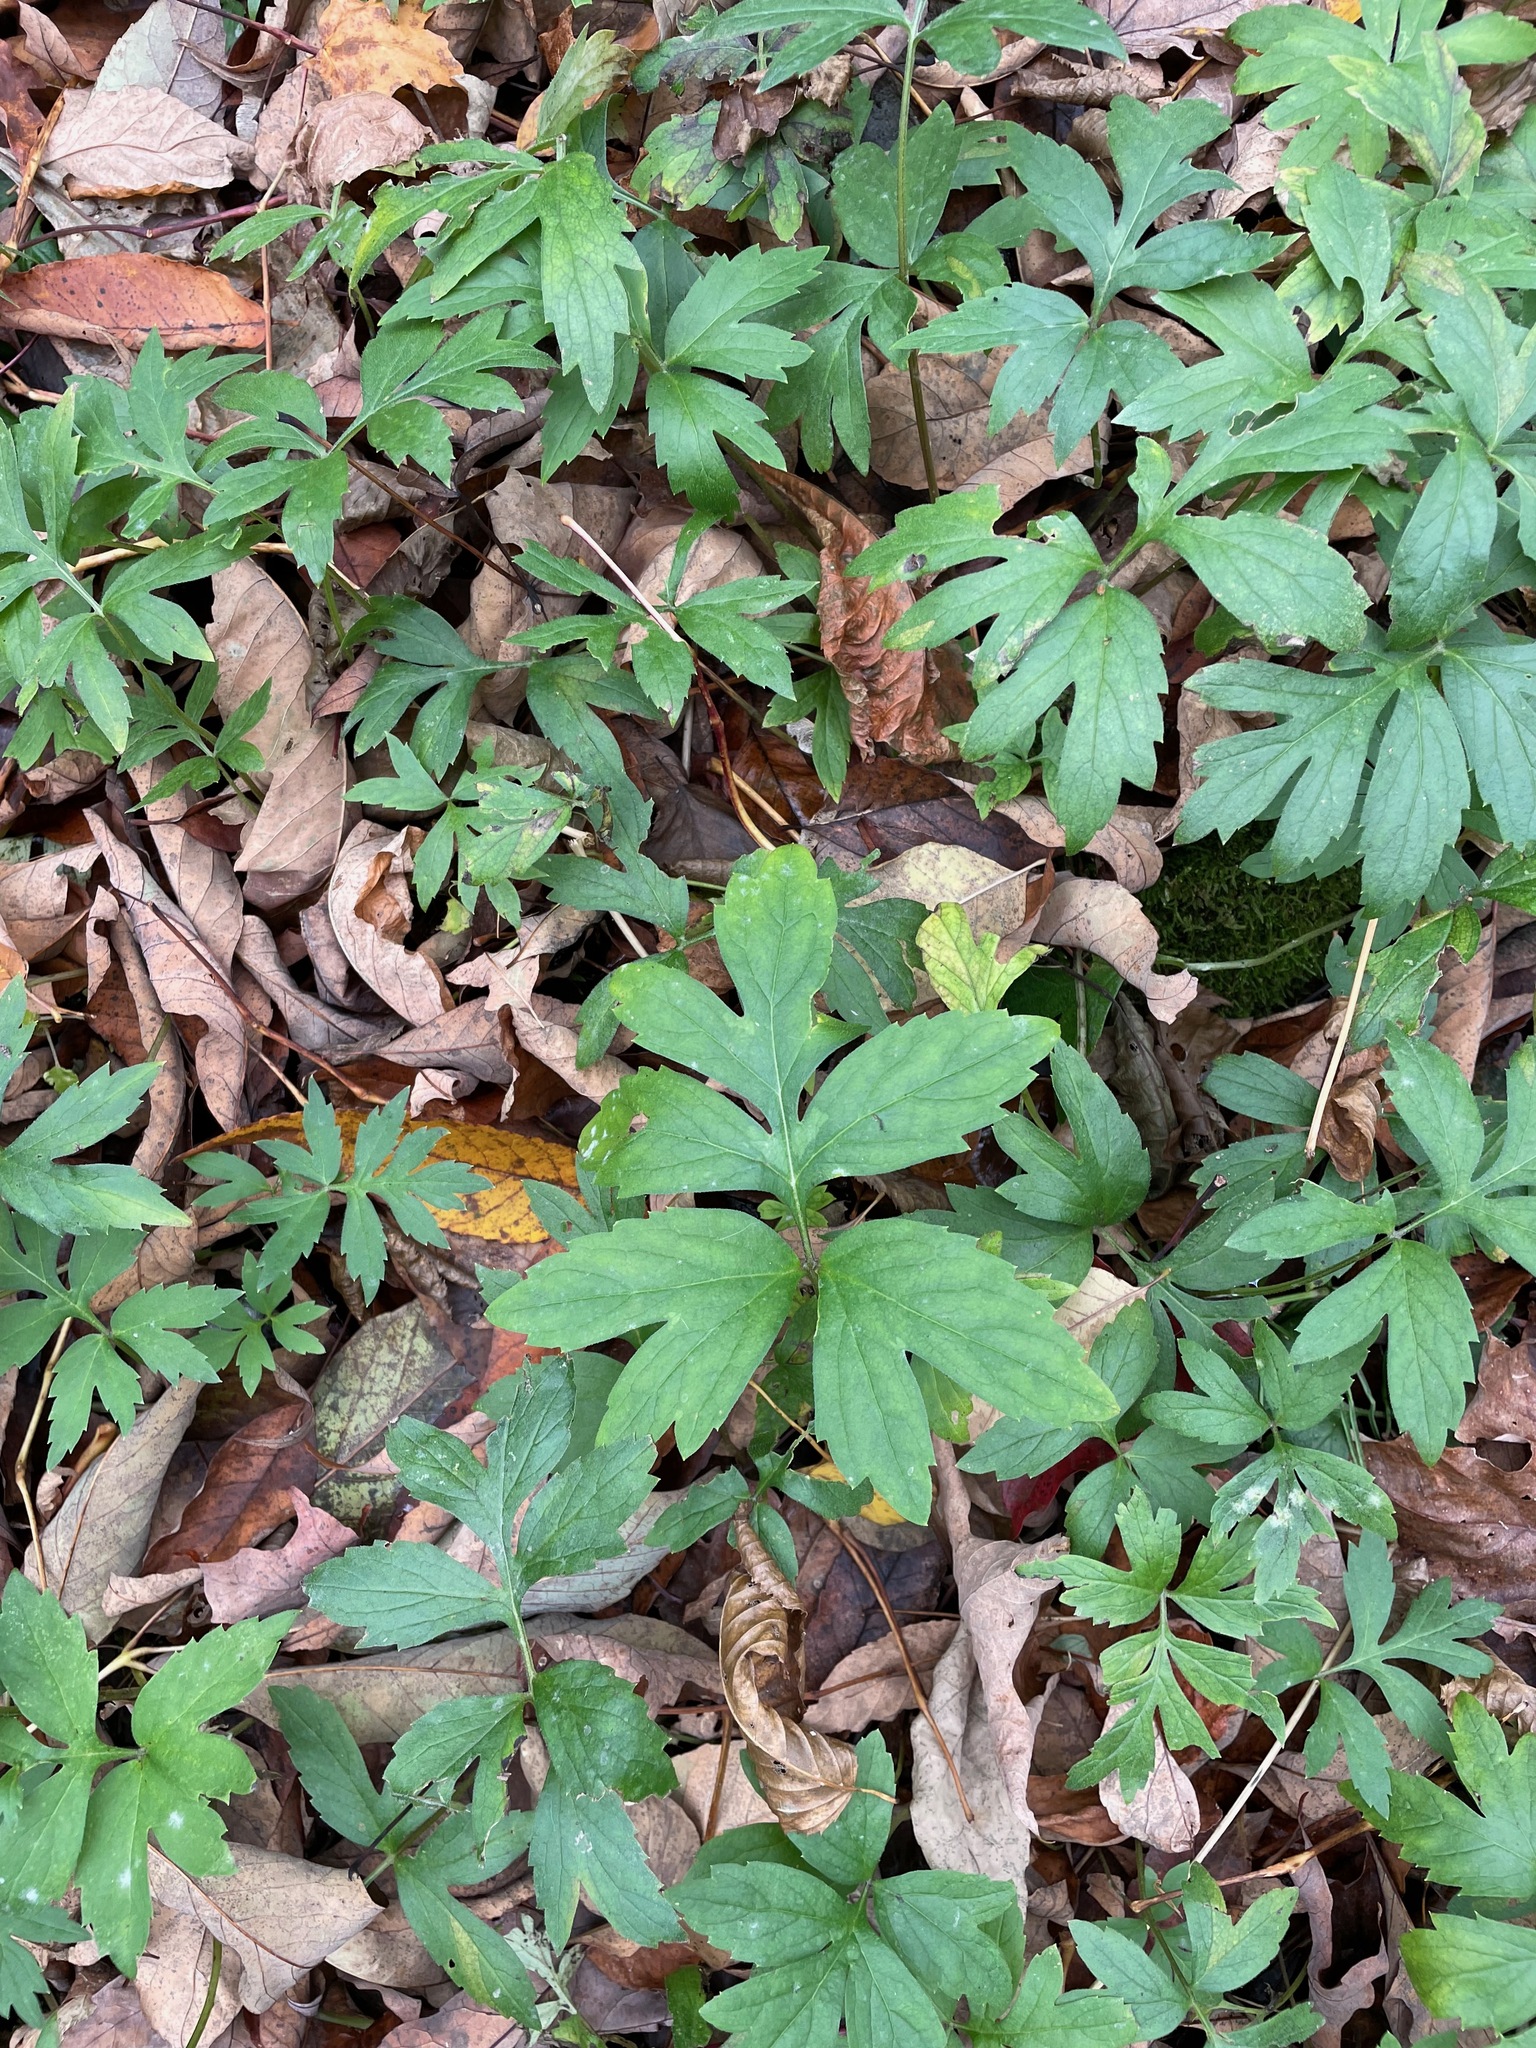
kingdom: Plantae
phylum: Tracheophyta
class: Magnoliopsida
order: Boraginales
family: Hydrophyllaceae
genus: Hydrophyllum
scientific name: Hydrophyllum virginianum
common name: Virginia waterleaf
